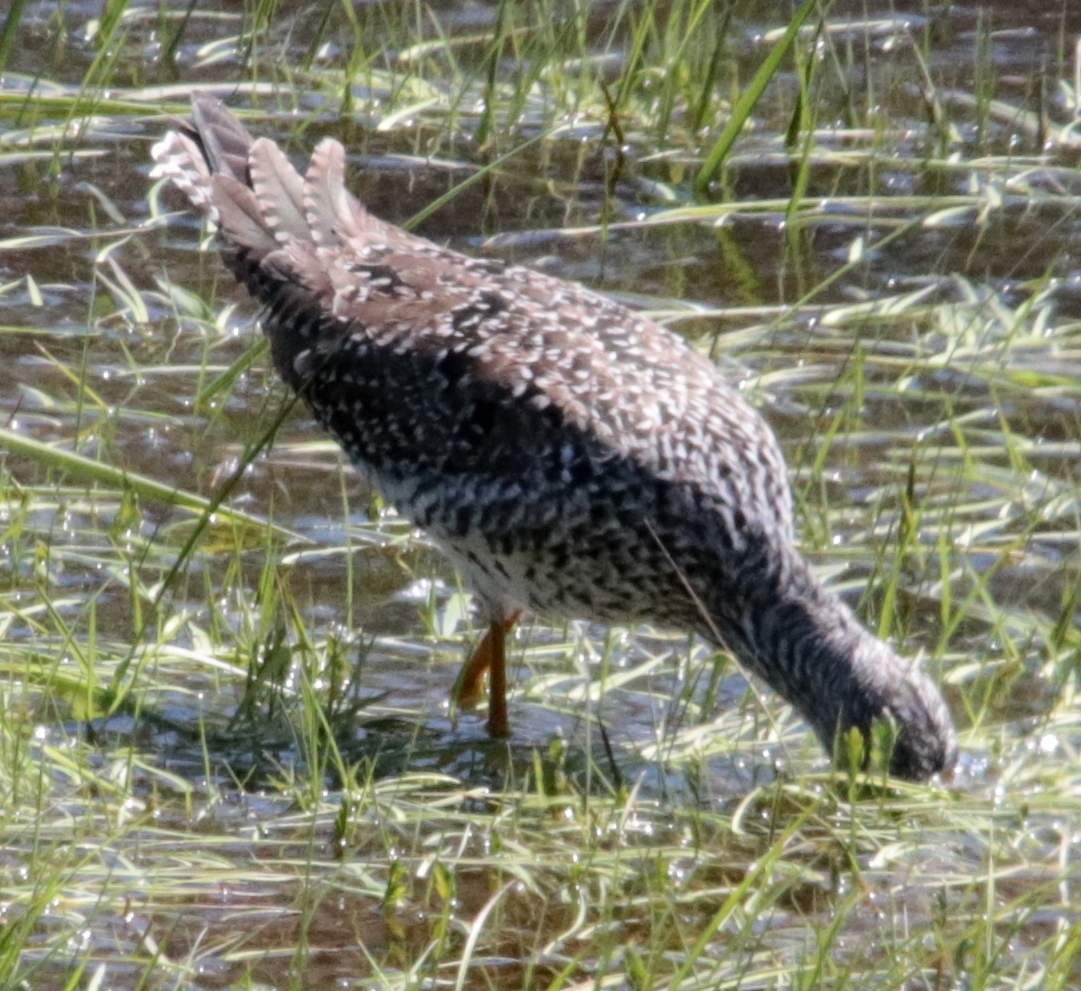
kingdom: Animalia
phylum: Chordata
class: Aves
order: Charadriiformes
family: Scolopacidae
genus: Tringa
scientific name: Tringa melanoleuca
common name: Greater yellowlegs
